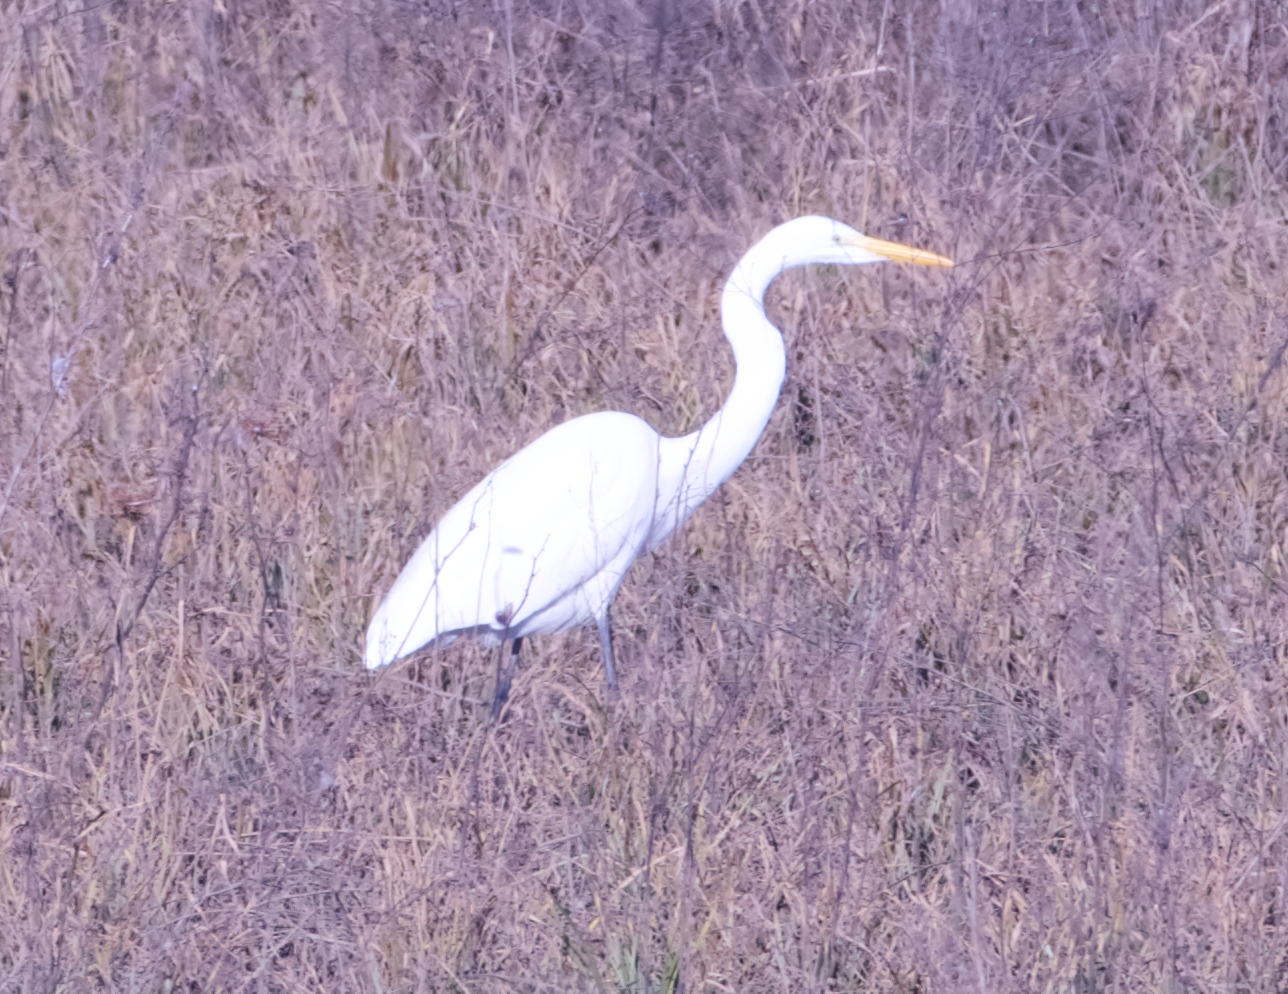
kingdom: Animalia
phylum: Chordata
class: Aves
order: Pelecaniformes
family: Ardeidae
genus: Ardea
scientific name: Ardea alba
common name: Great egret
